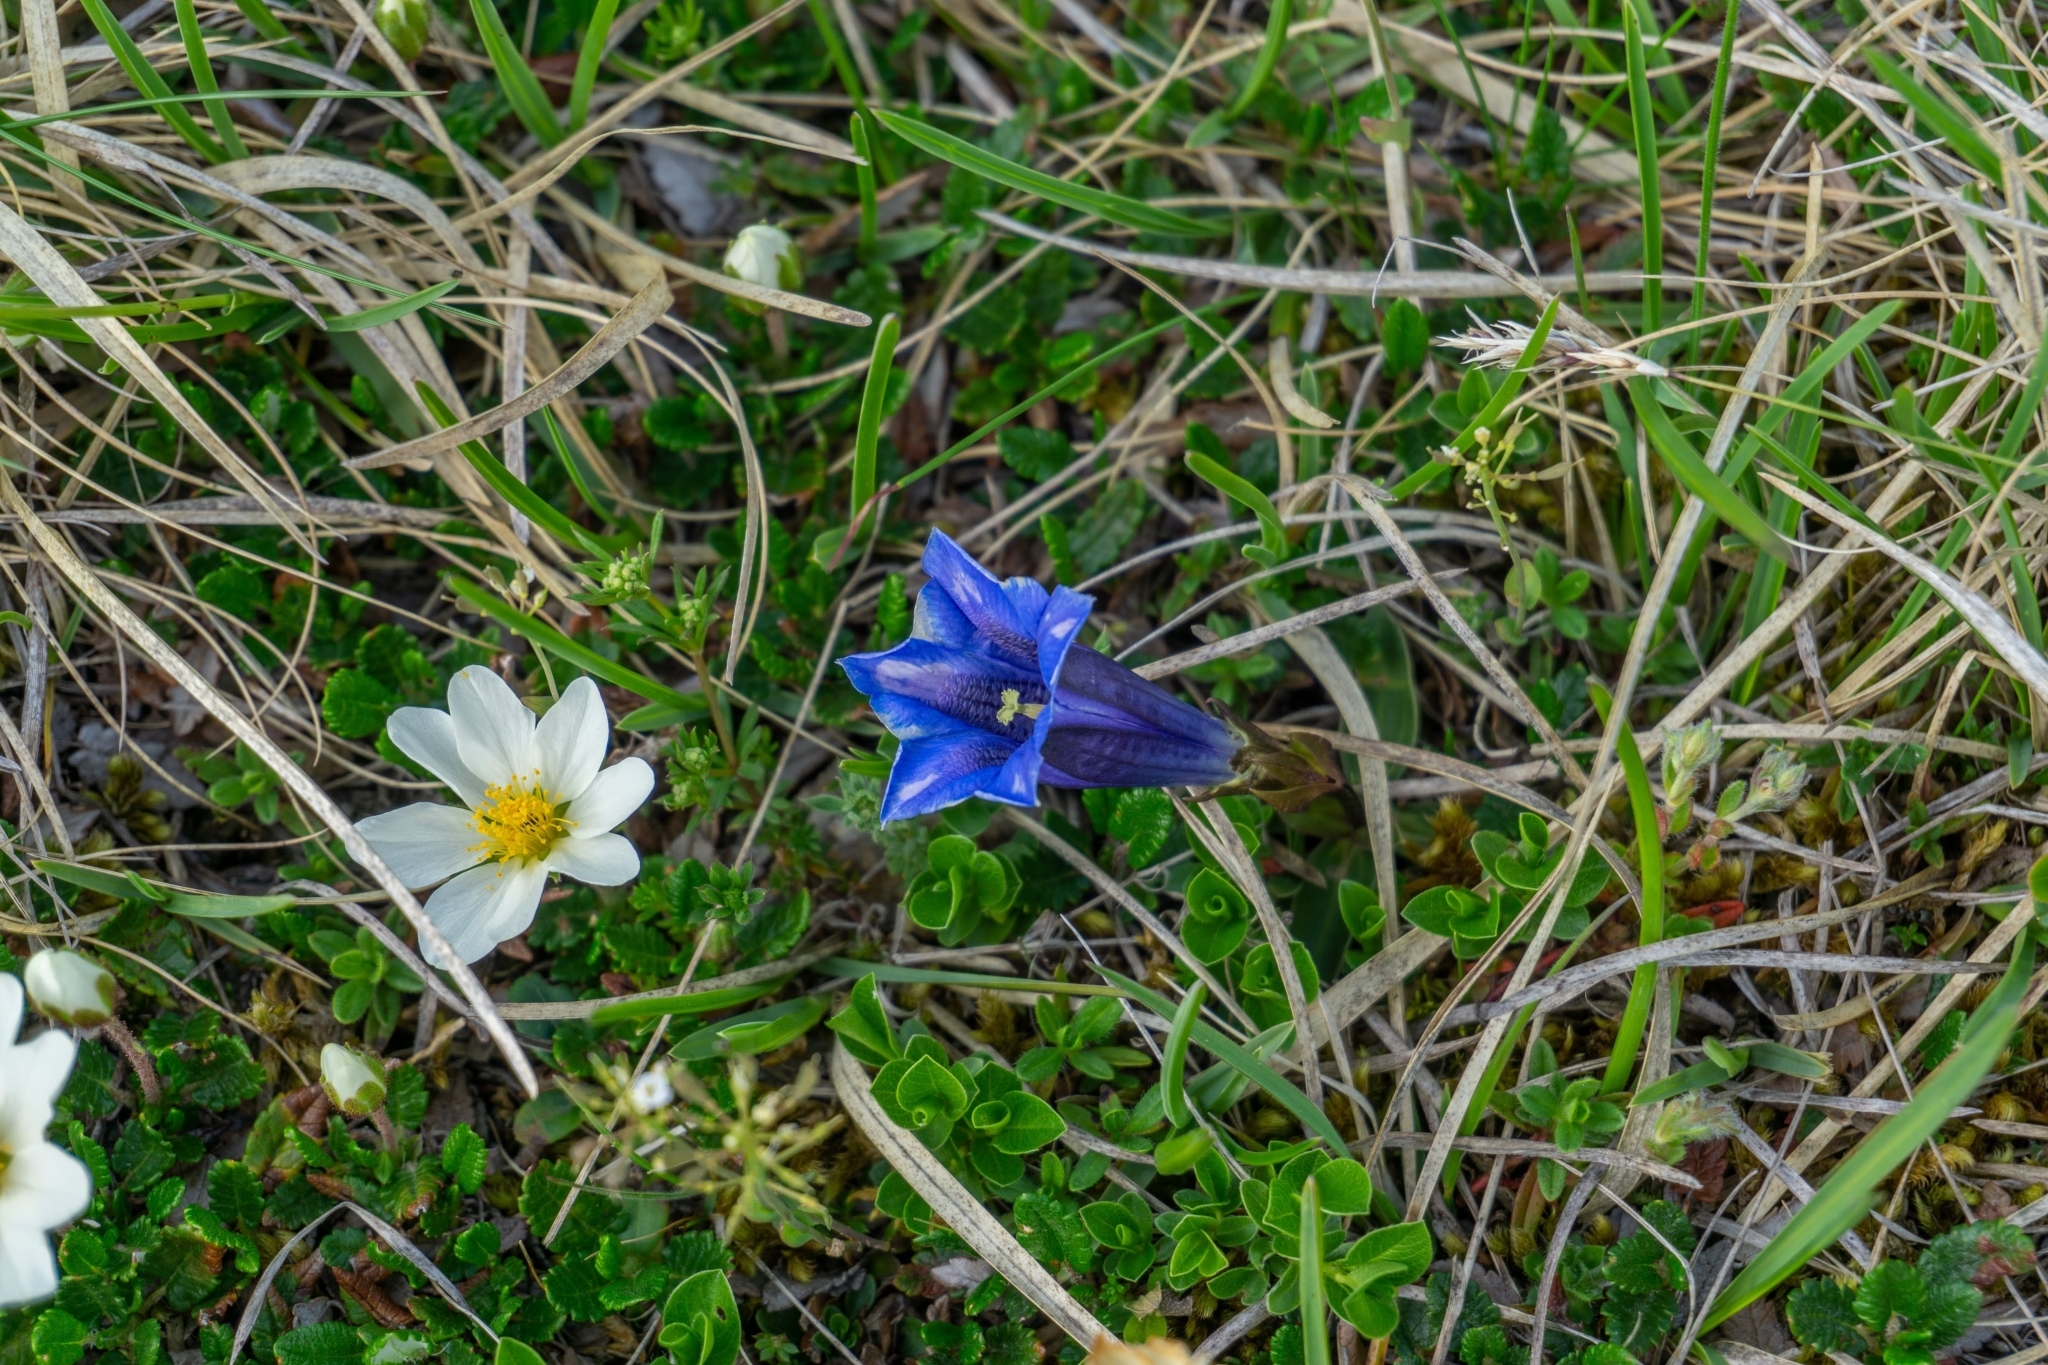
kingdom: Plantae
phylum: Tracheophyta
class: Magnoliopsida
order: Gentianales
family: Gentianaceae
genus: Gentiana
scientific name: Gentiana clusii
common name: Trumpet gentian
